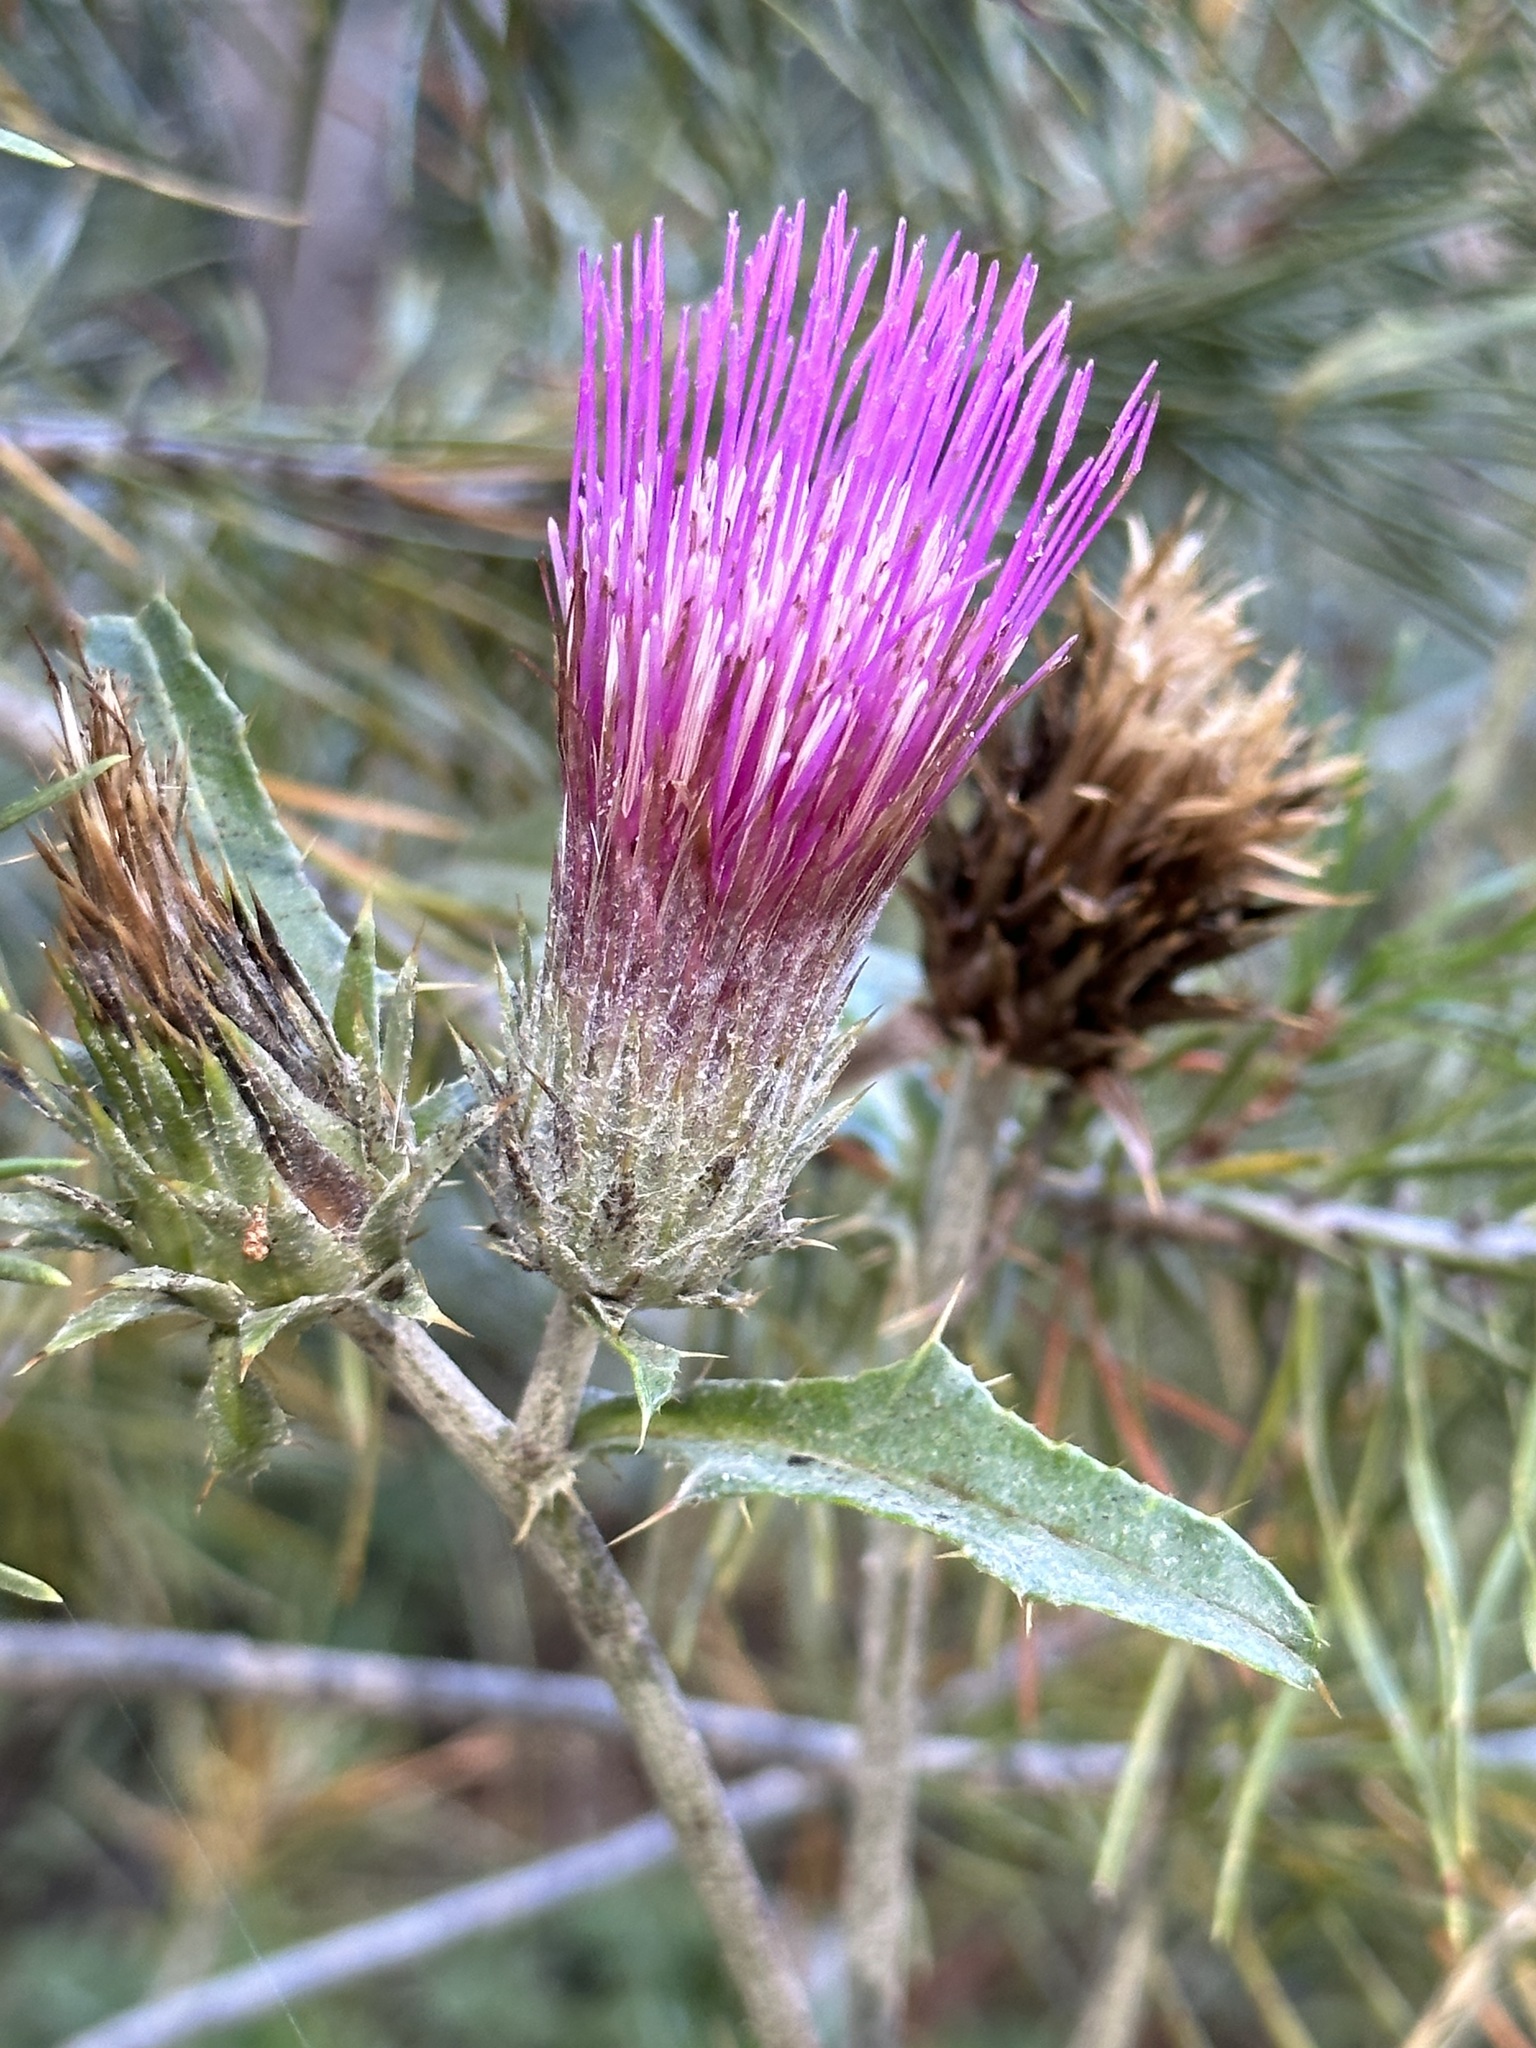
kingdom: Plantae
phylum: Tracheophyta
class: Magnoliopsida
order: Asterales
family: Asteraceae
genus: Cirsium
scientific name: Cirsium andersonii
